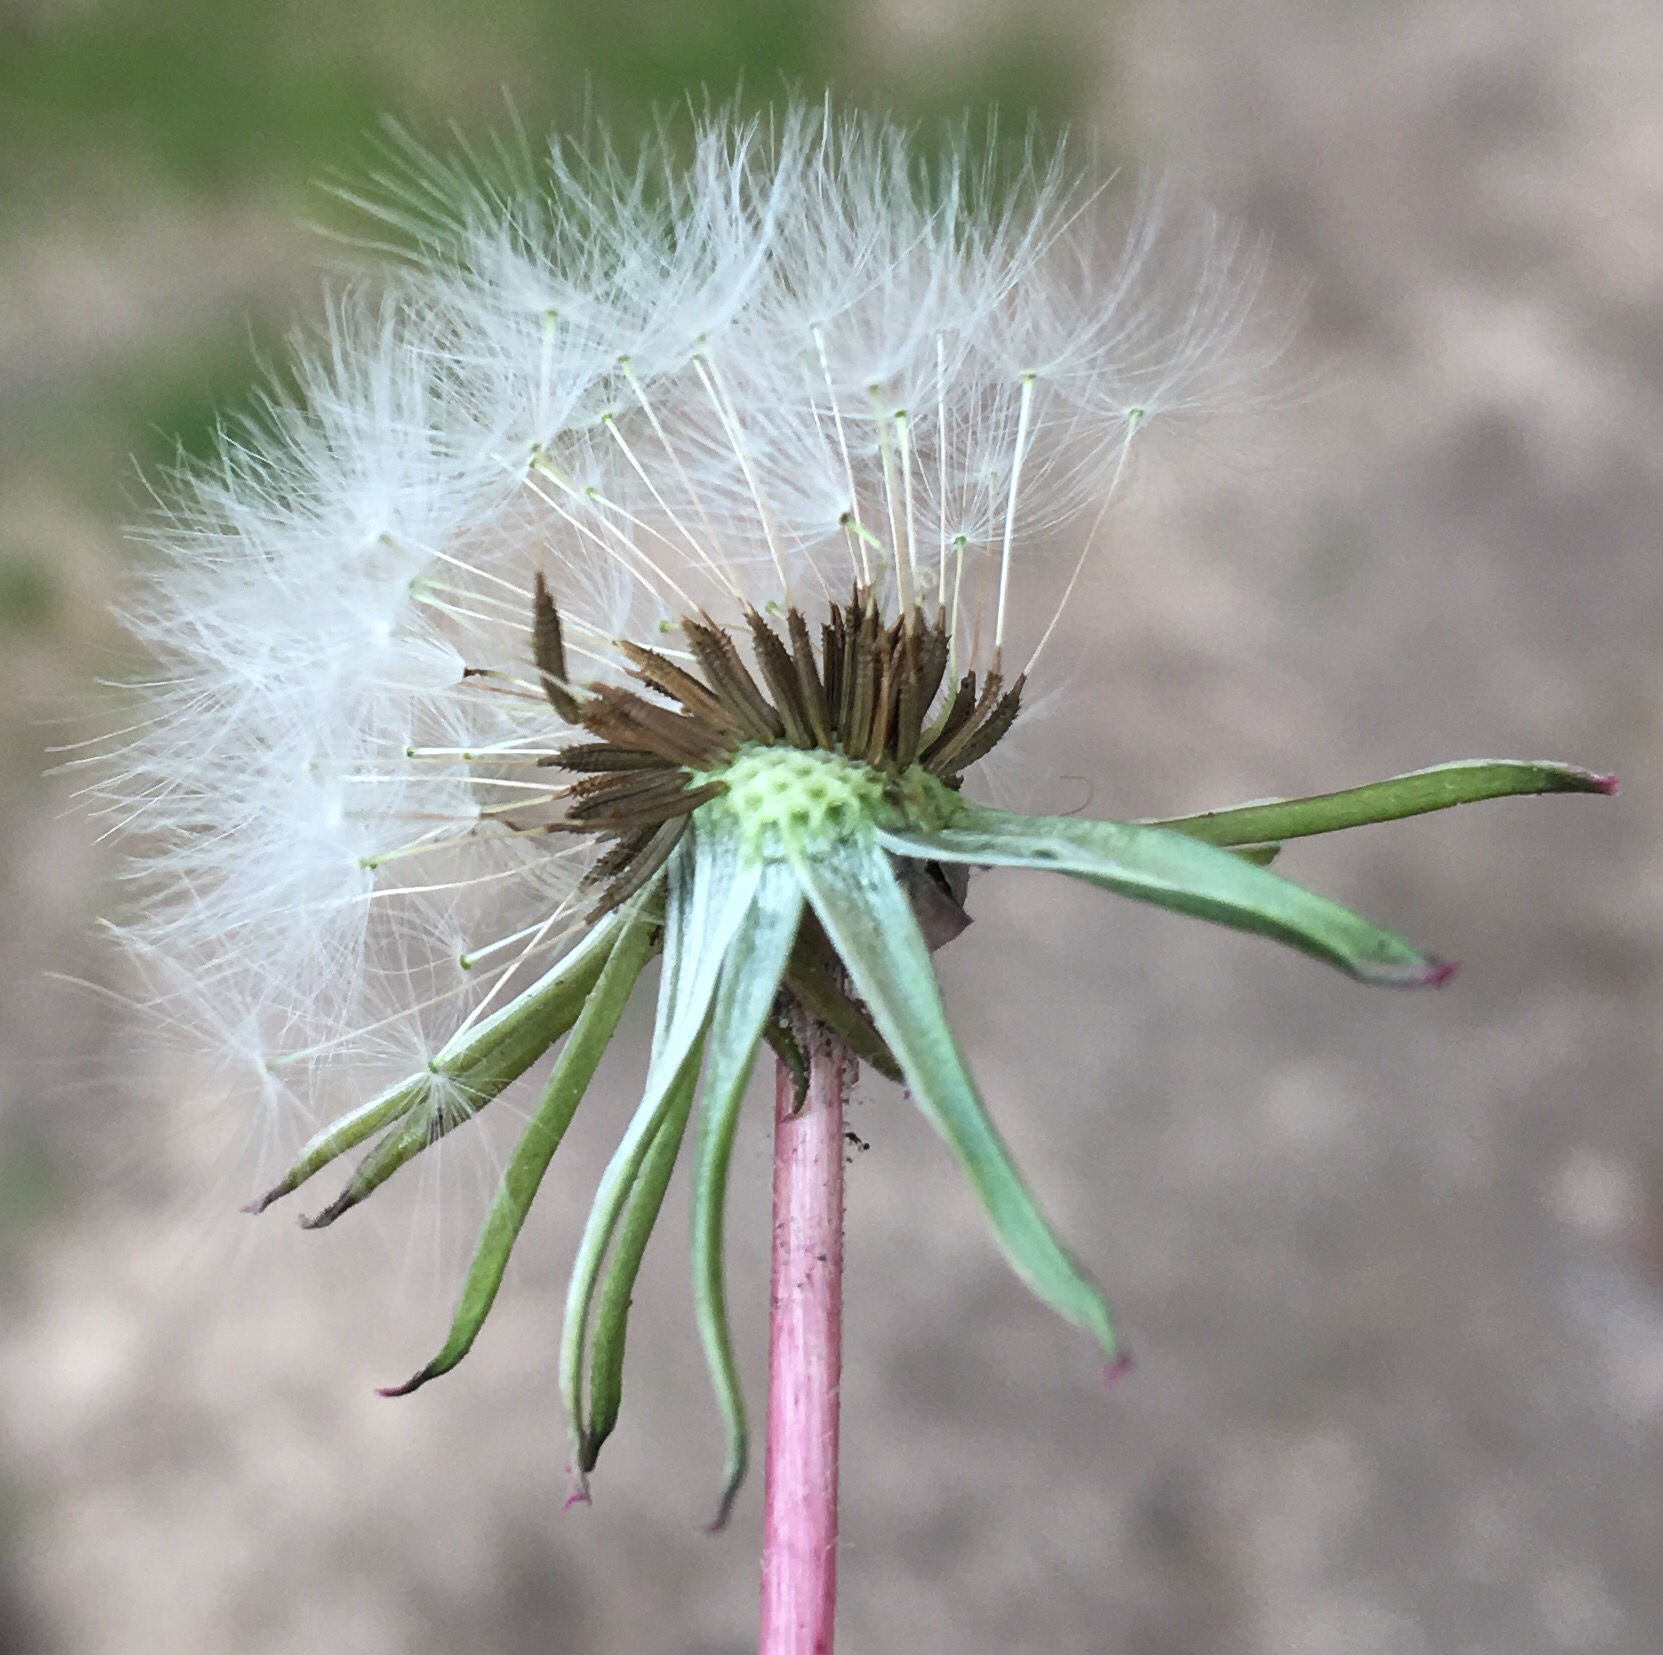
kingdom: Plantae
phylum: Tracheophyta
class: Magnoliopsida
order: Asterales
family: Asteraceae
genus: Taraxacum
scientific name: Taraxacum officinale
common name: Common dandelion
